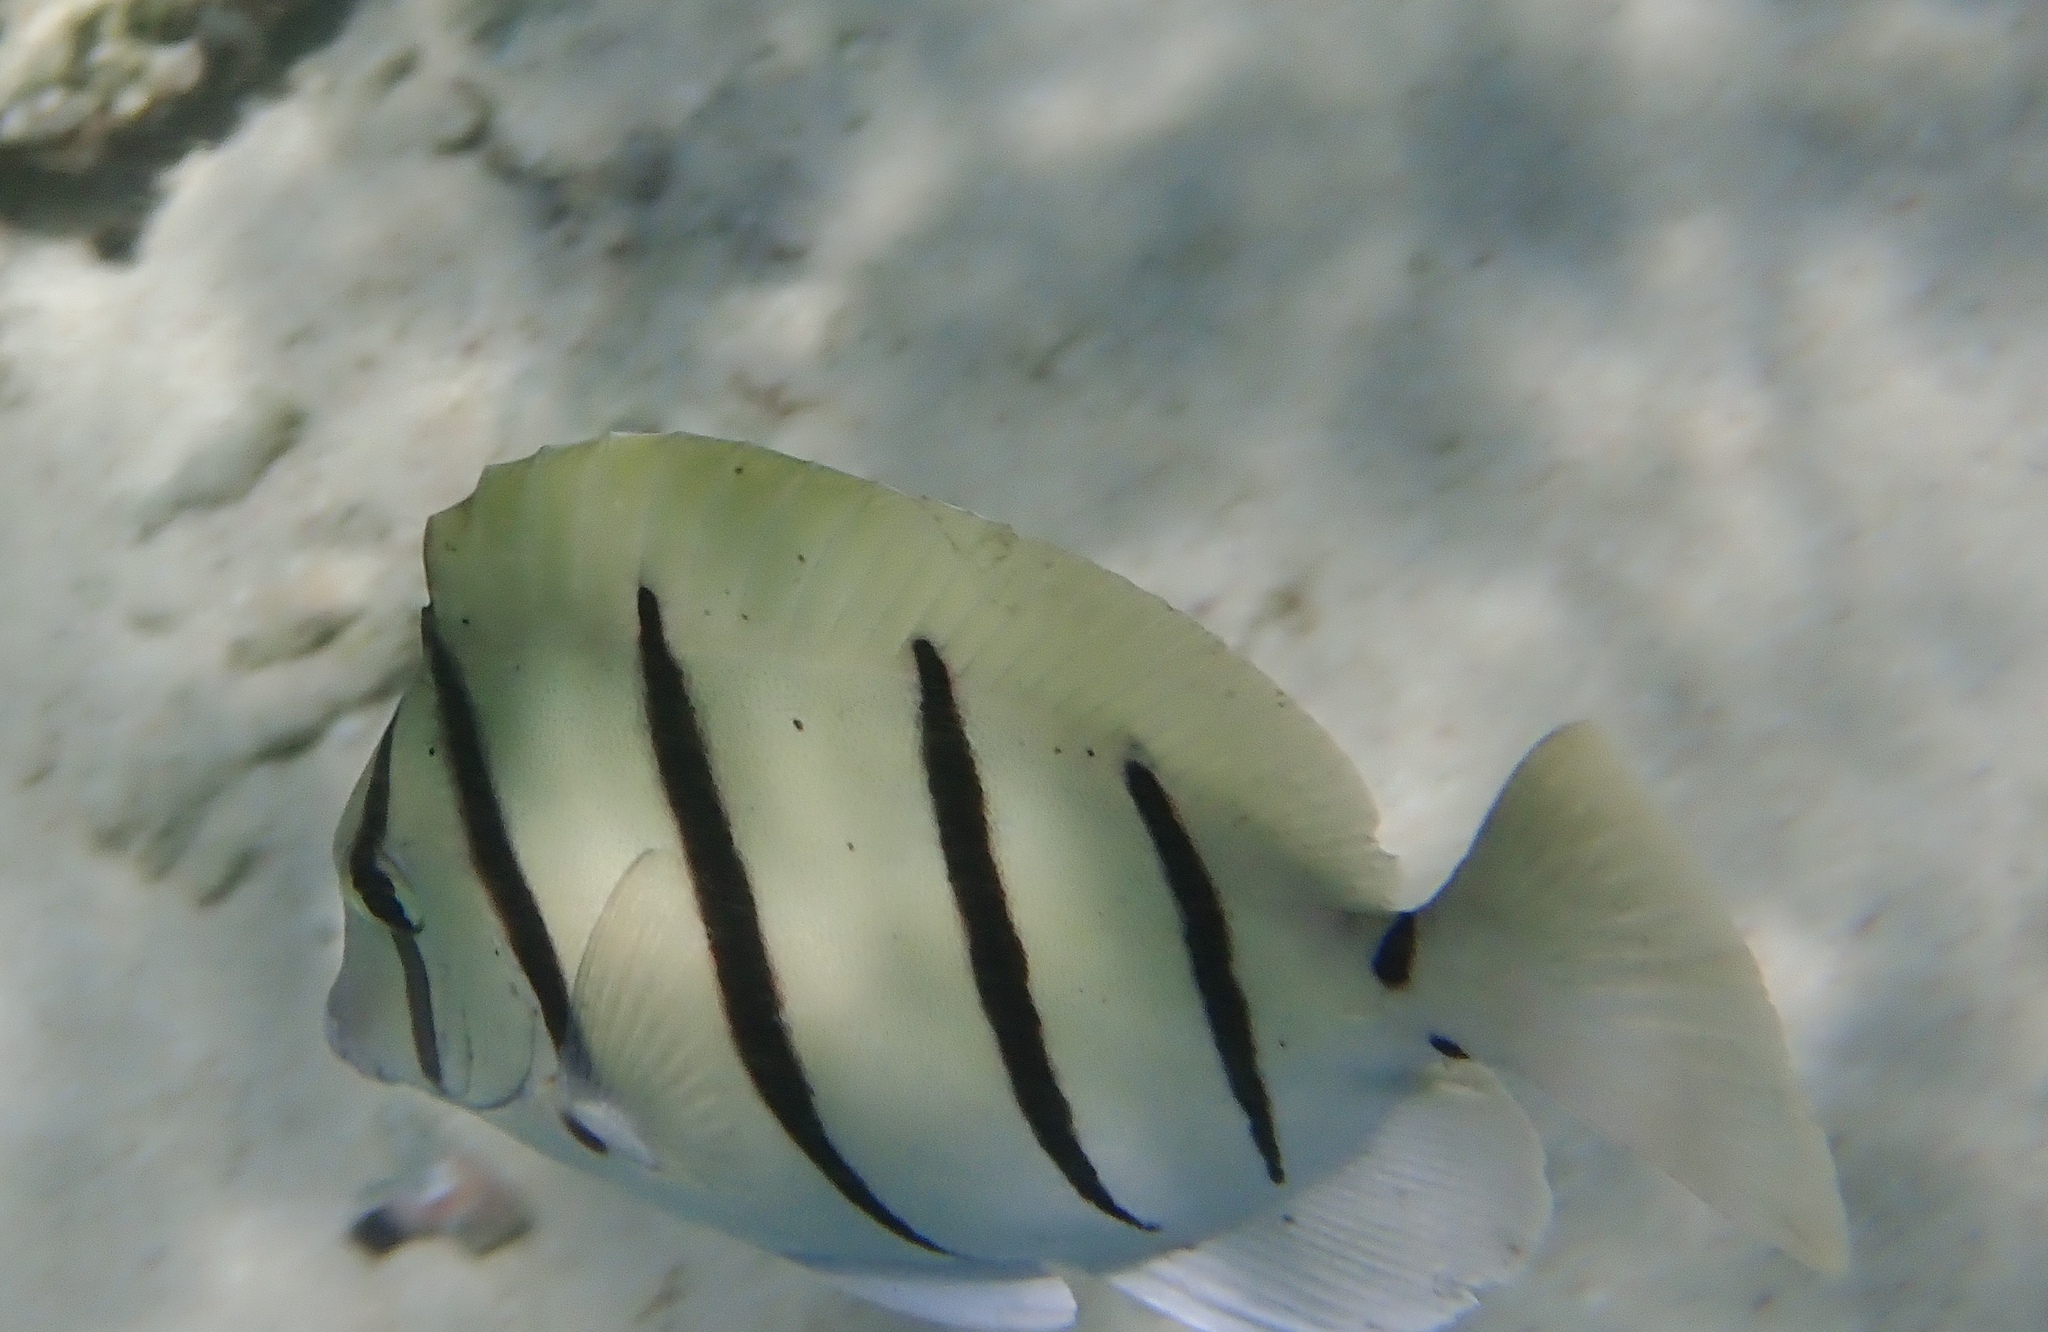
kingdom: Animalia
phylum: Chordata
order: Perciformes
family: Acanthuridae
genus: Acanthurus
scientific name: Acanthurus triostegus
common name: Convict surgeonfish
